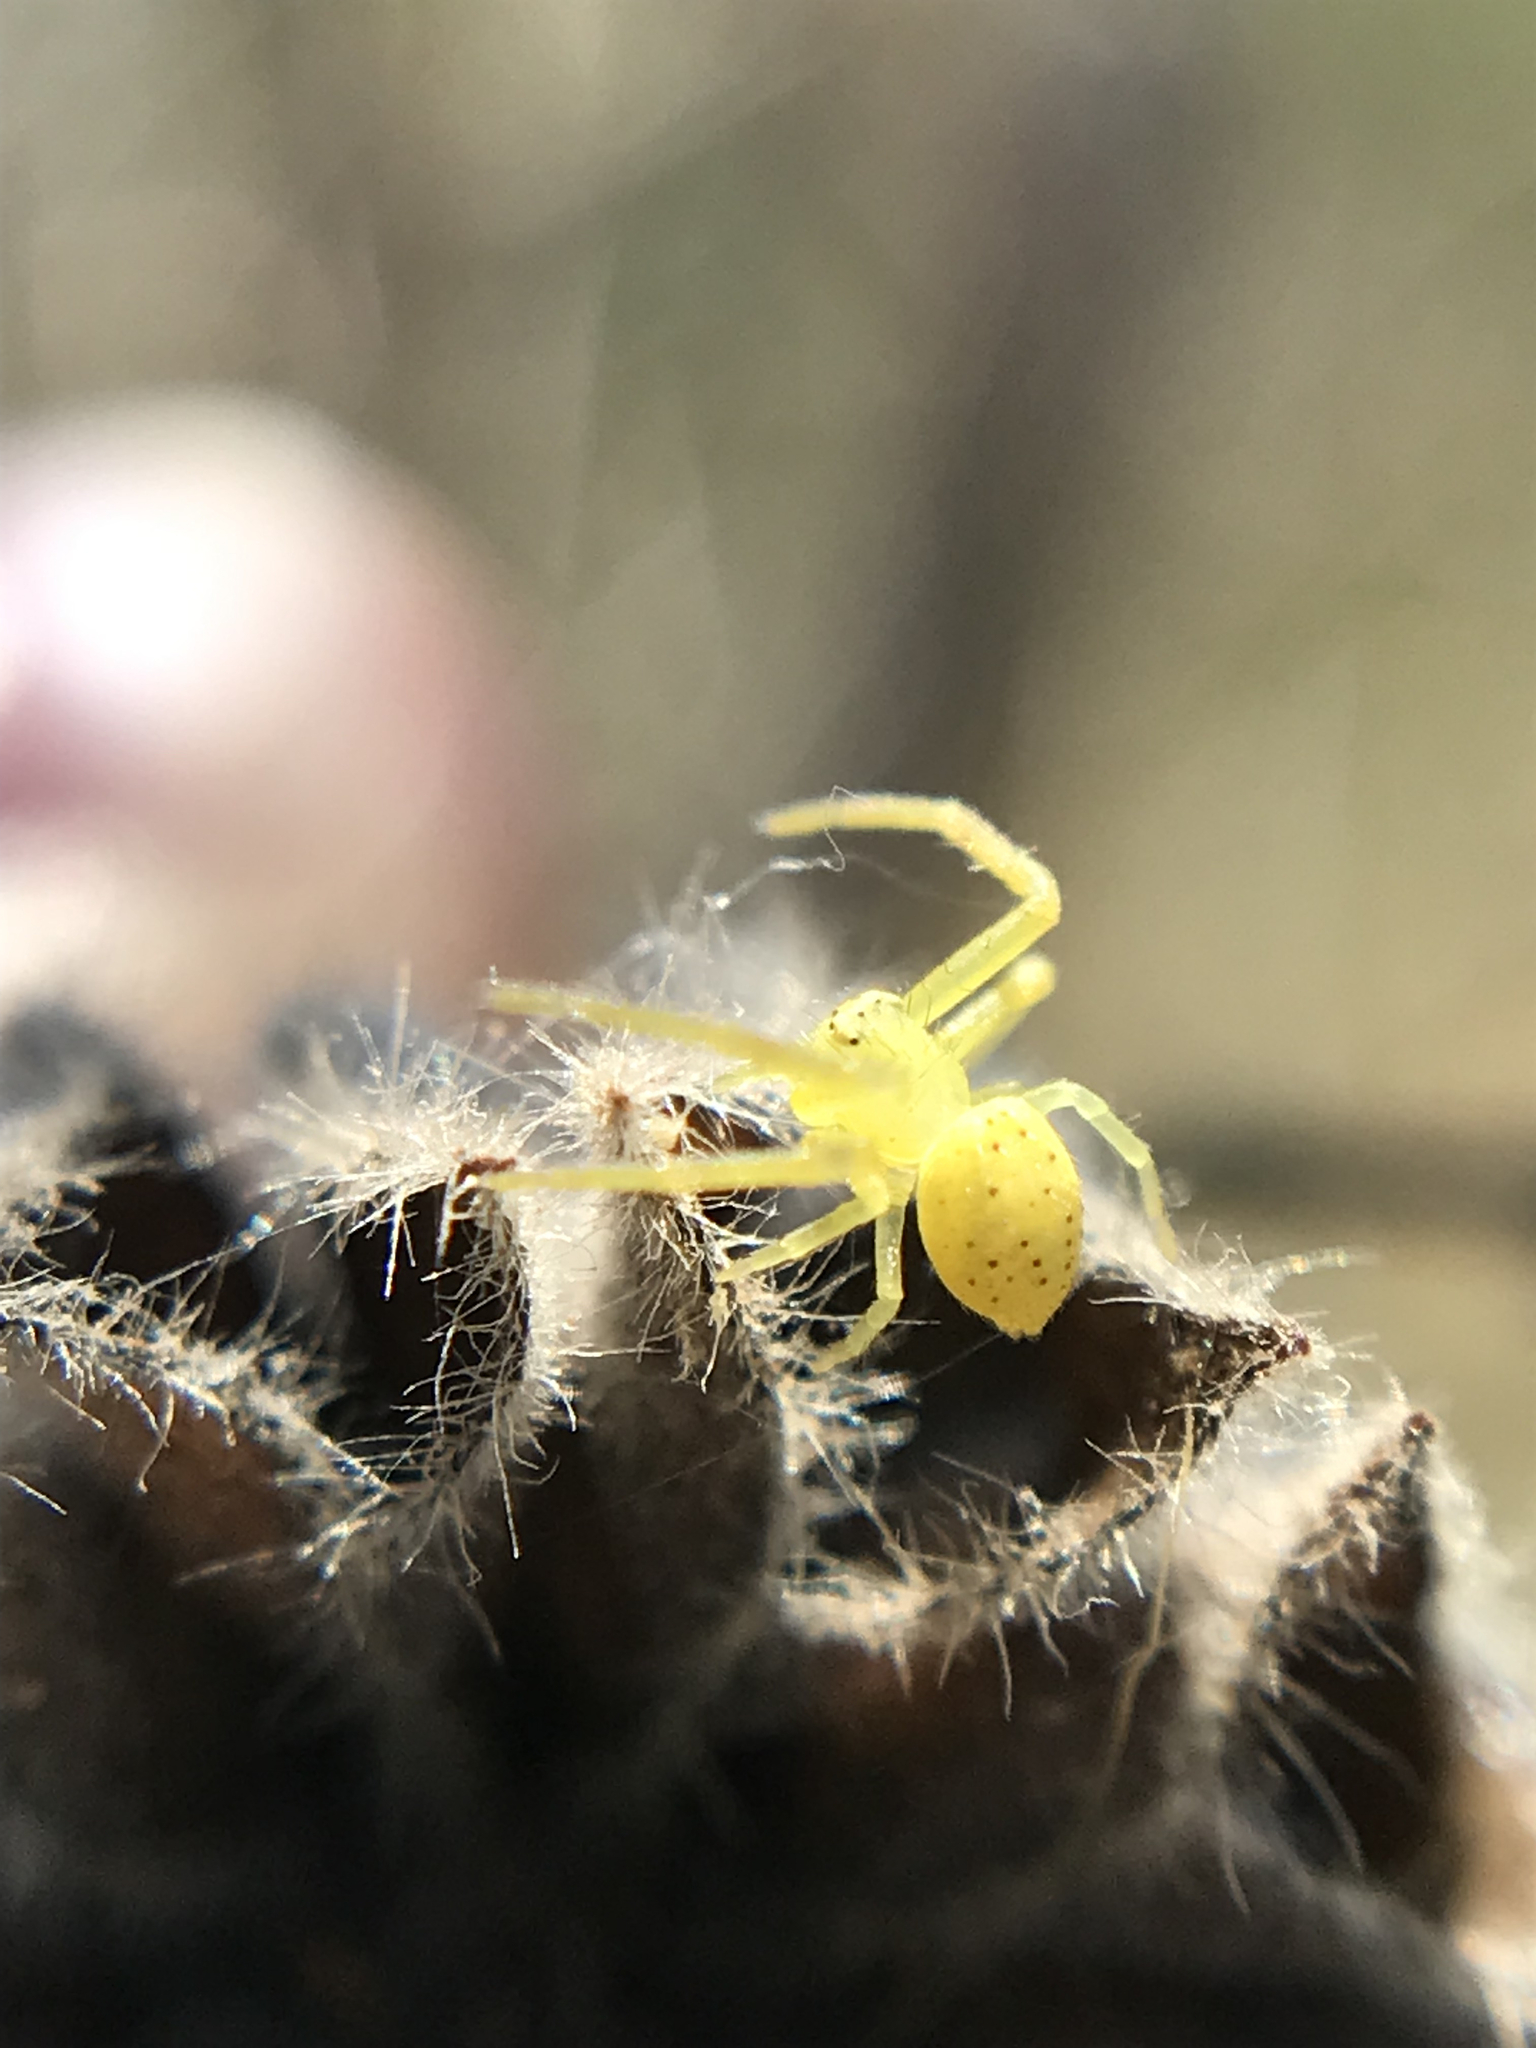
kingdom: Animalia
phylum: Arthropoda
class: Arachnida
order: Araneae
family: Thomisidae
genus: Misumenops
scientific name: Misumenops
